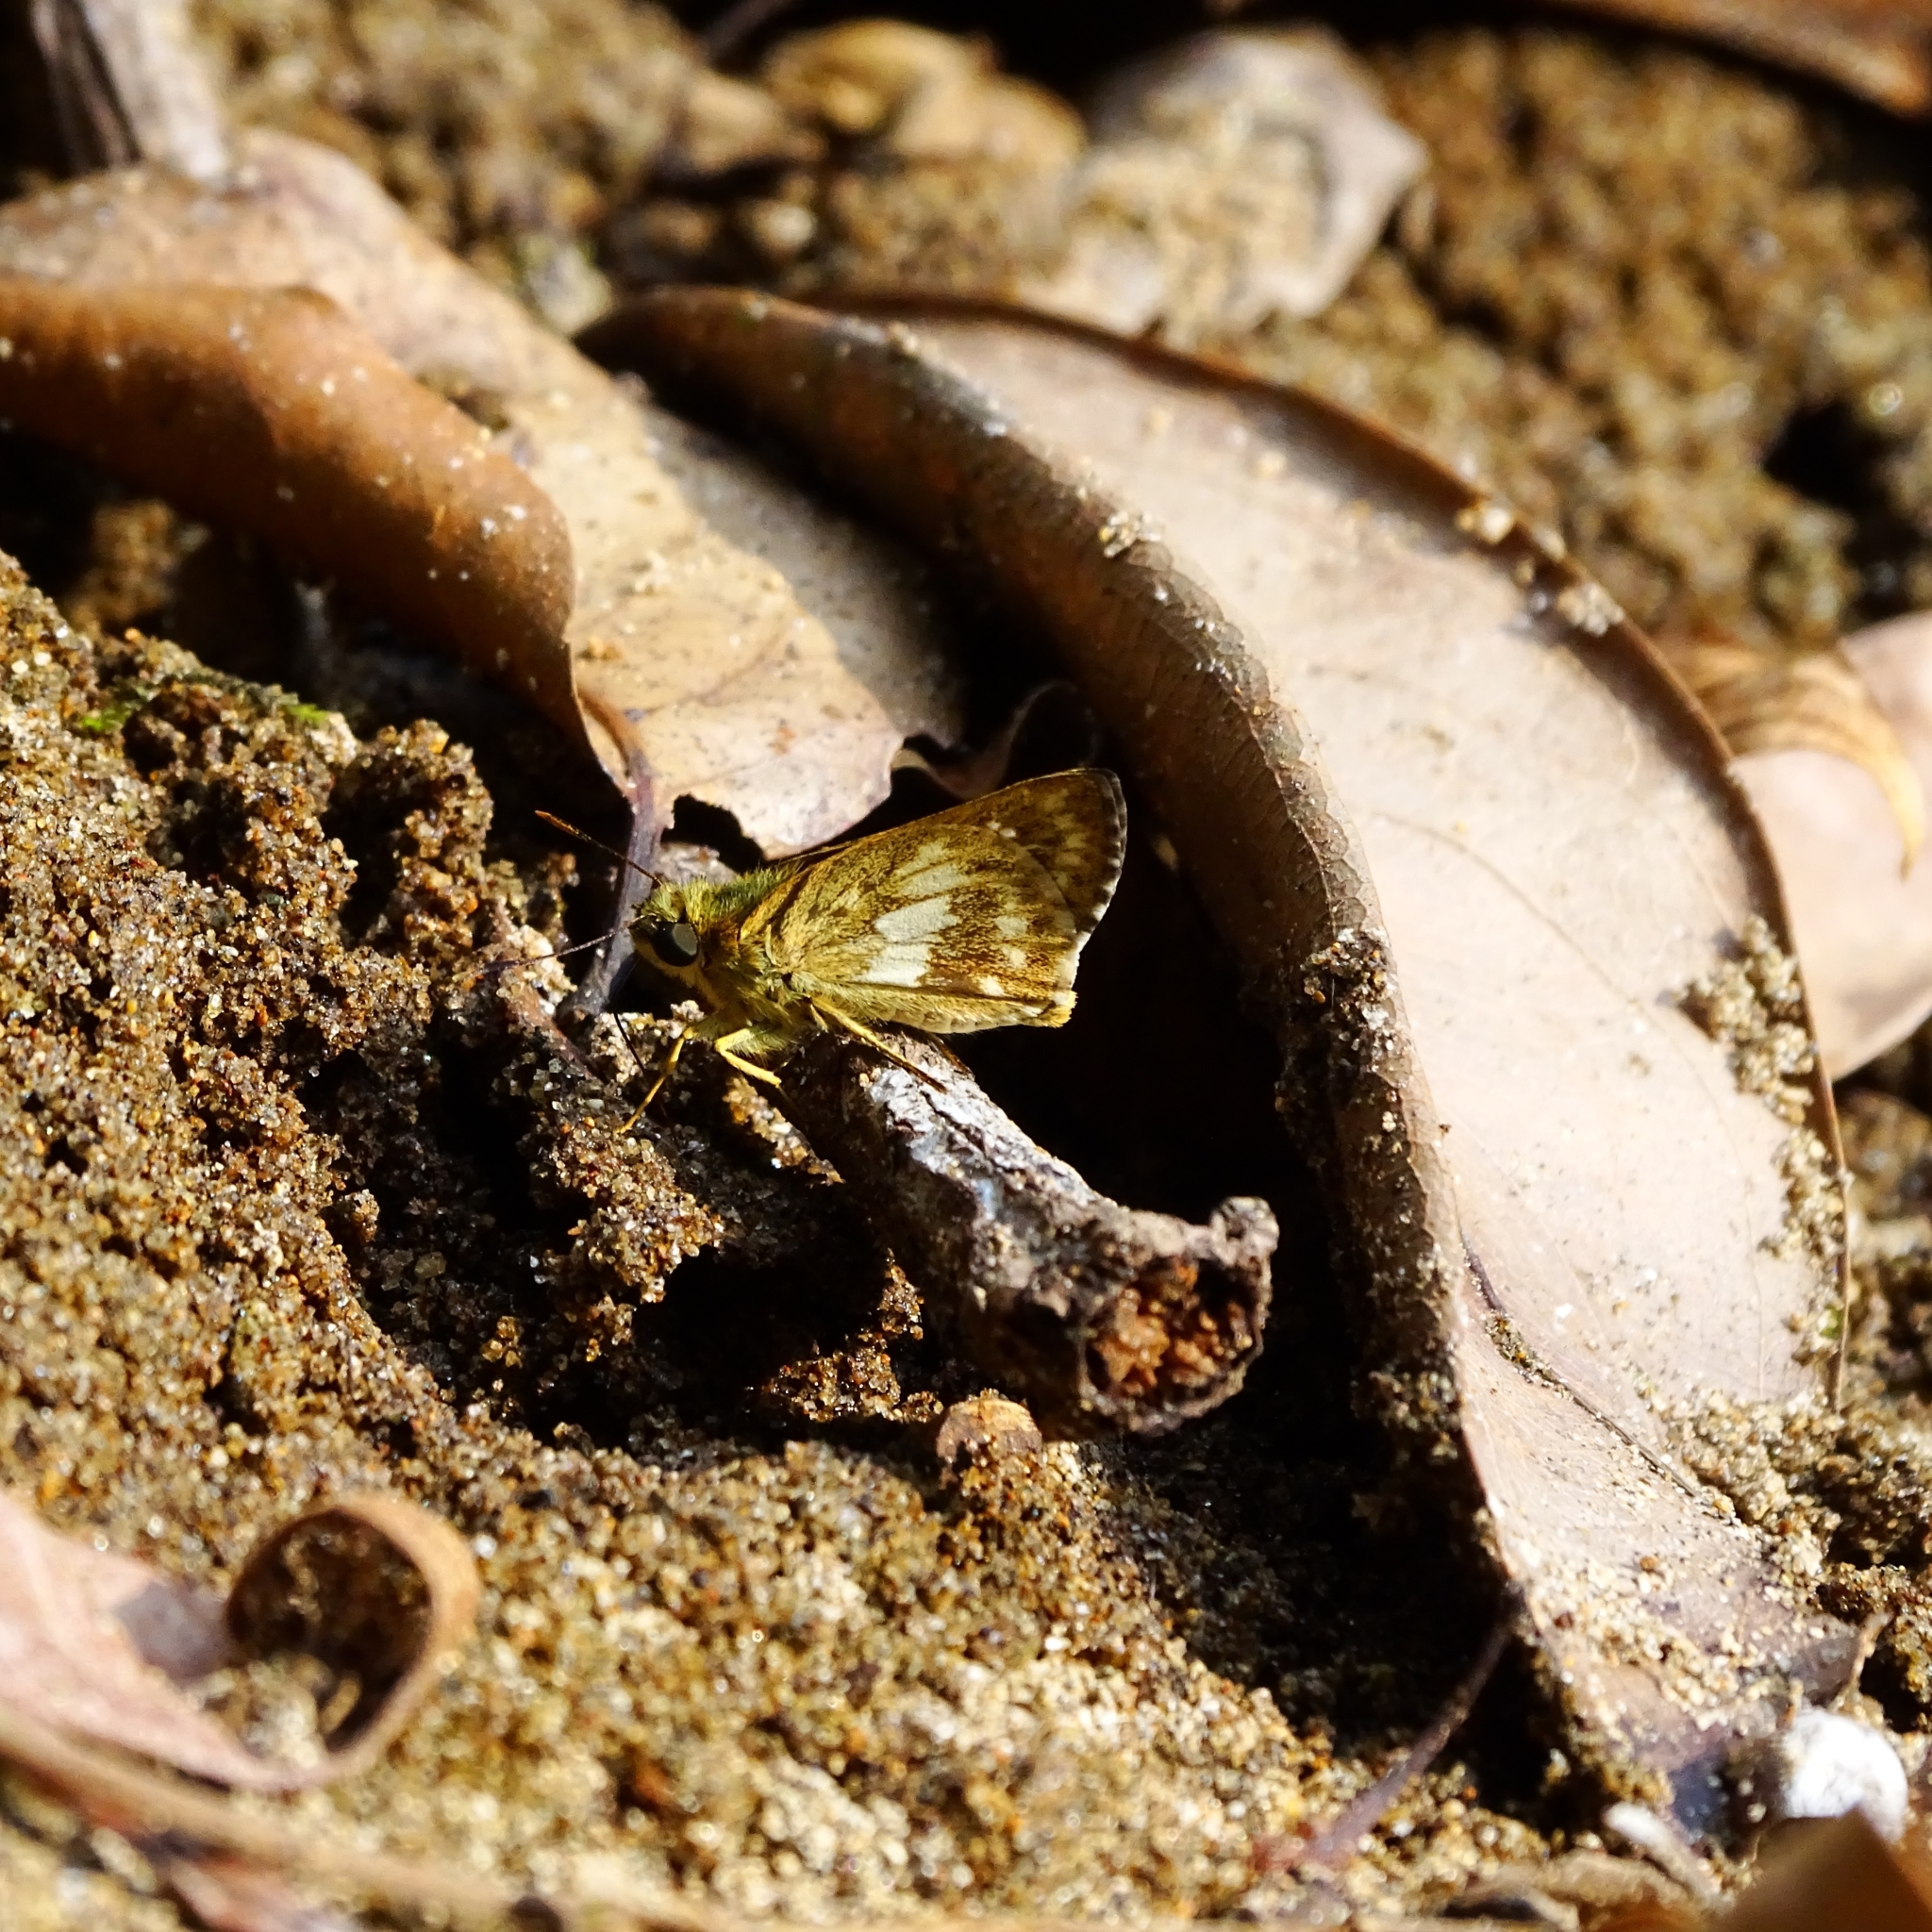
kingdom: Animalia
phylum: Arthropoda
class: Insecta
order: Lepidoptera
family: Hesperiidae
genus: Halpe
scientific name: Halpe homolea
